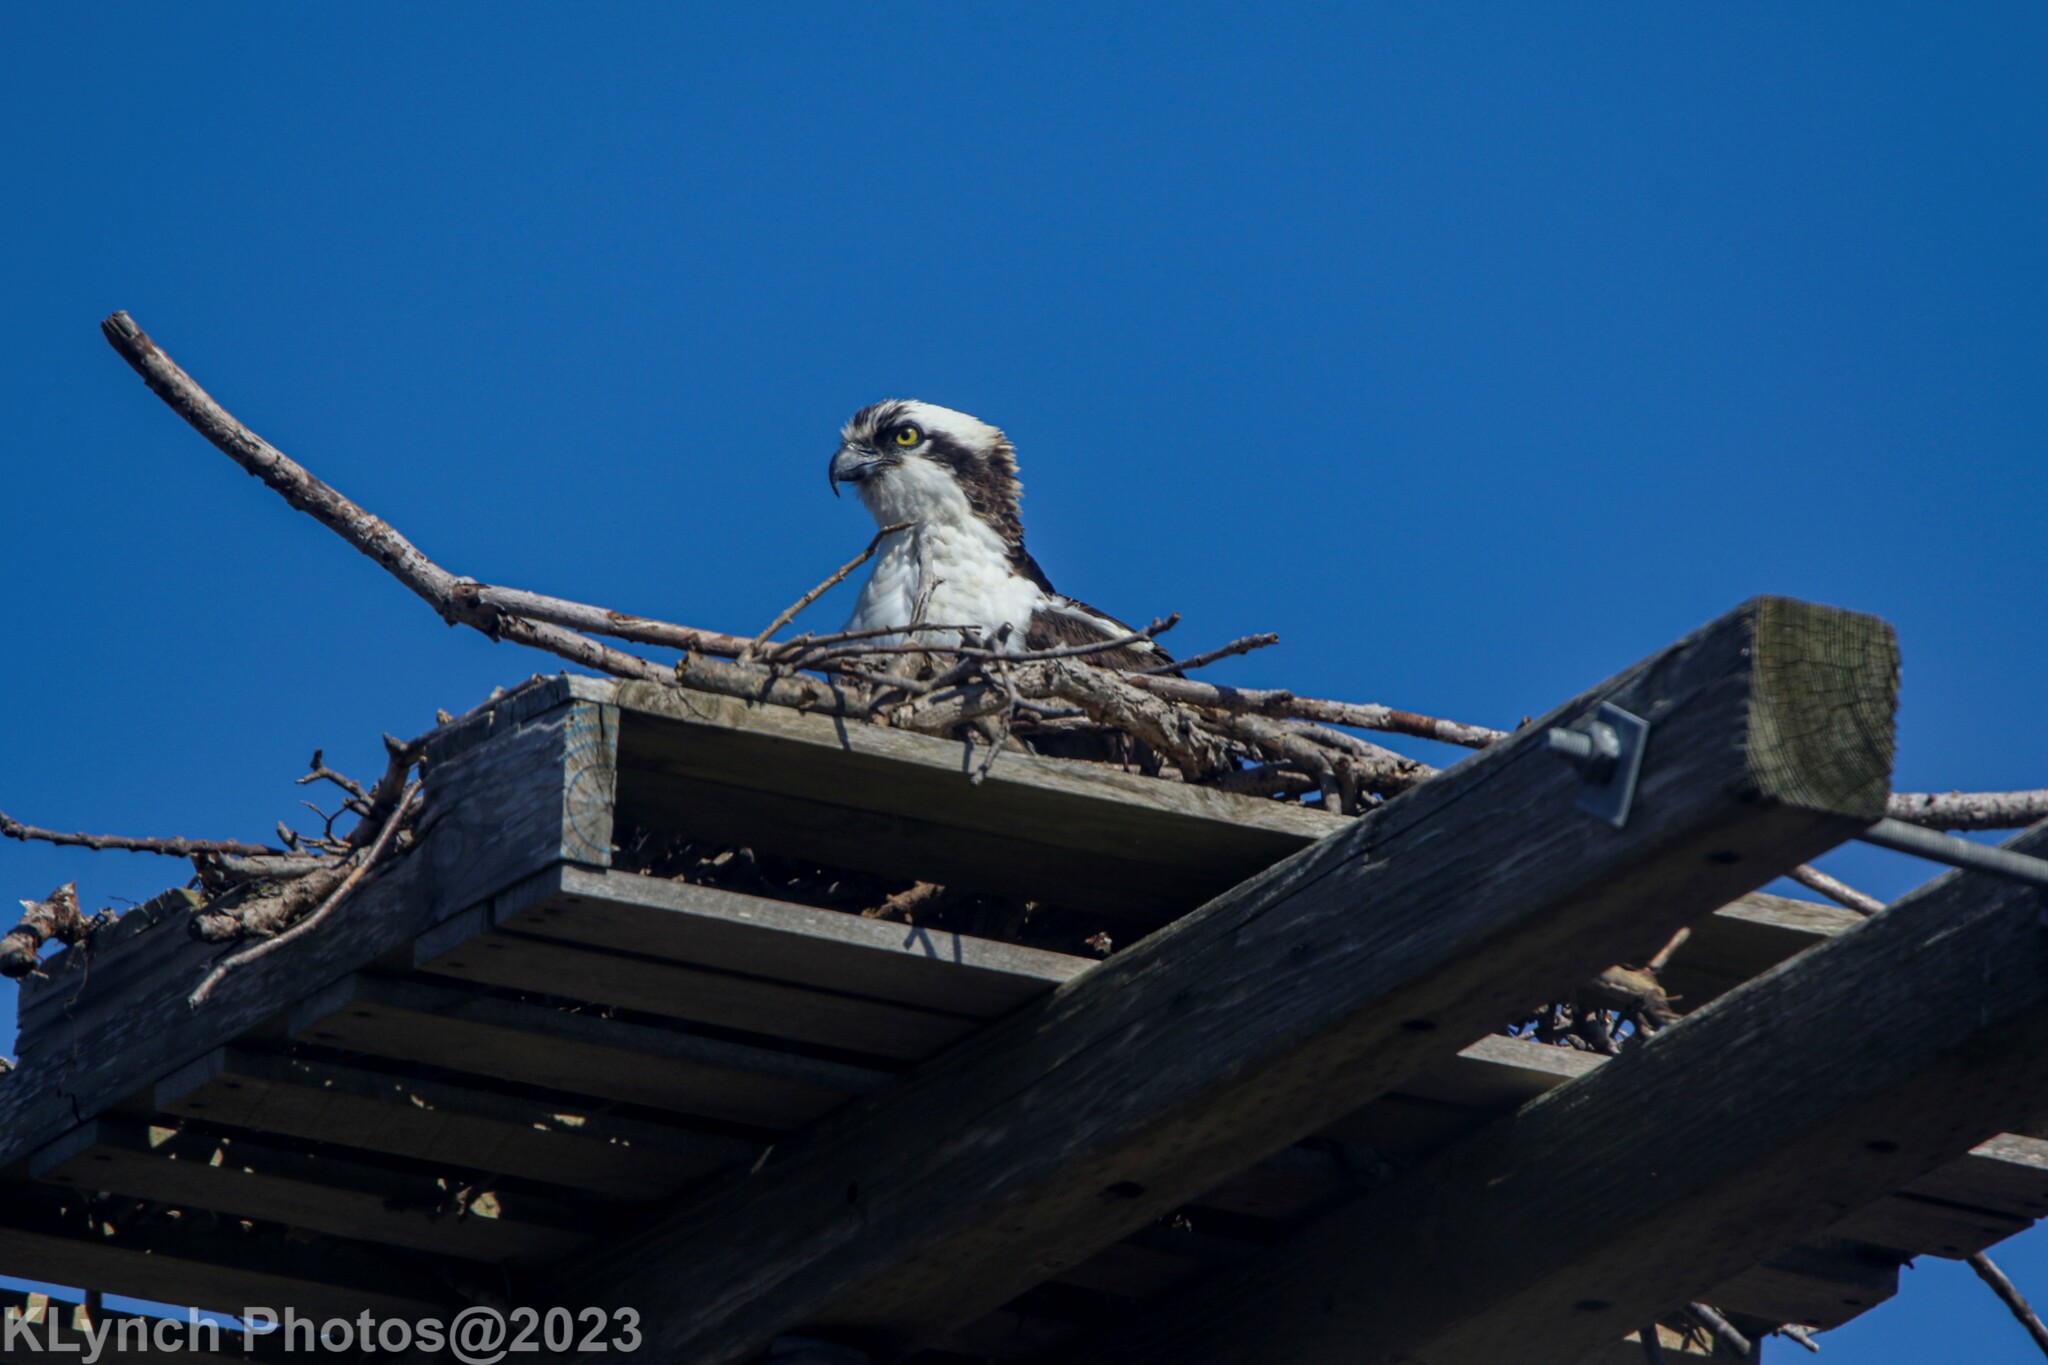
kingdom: Animalia
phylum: Chordata
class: Aves
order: Accipitriformes
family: Pandionidae
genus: Pandion
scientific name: Pandion haliaetus
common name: Osprey
